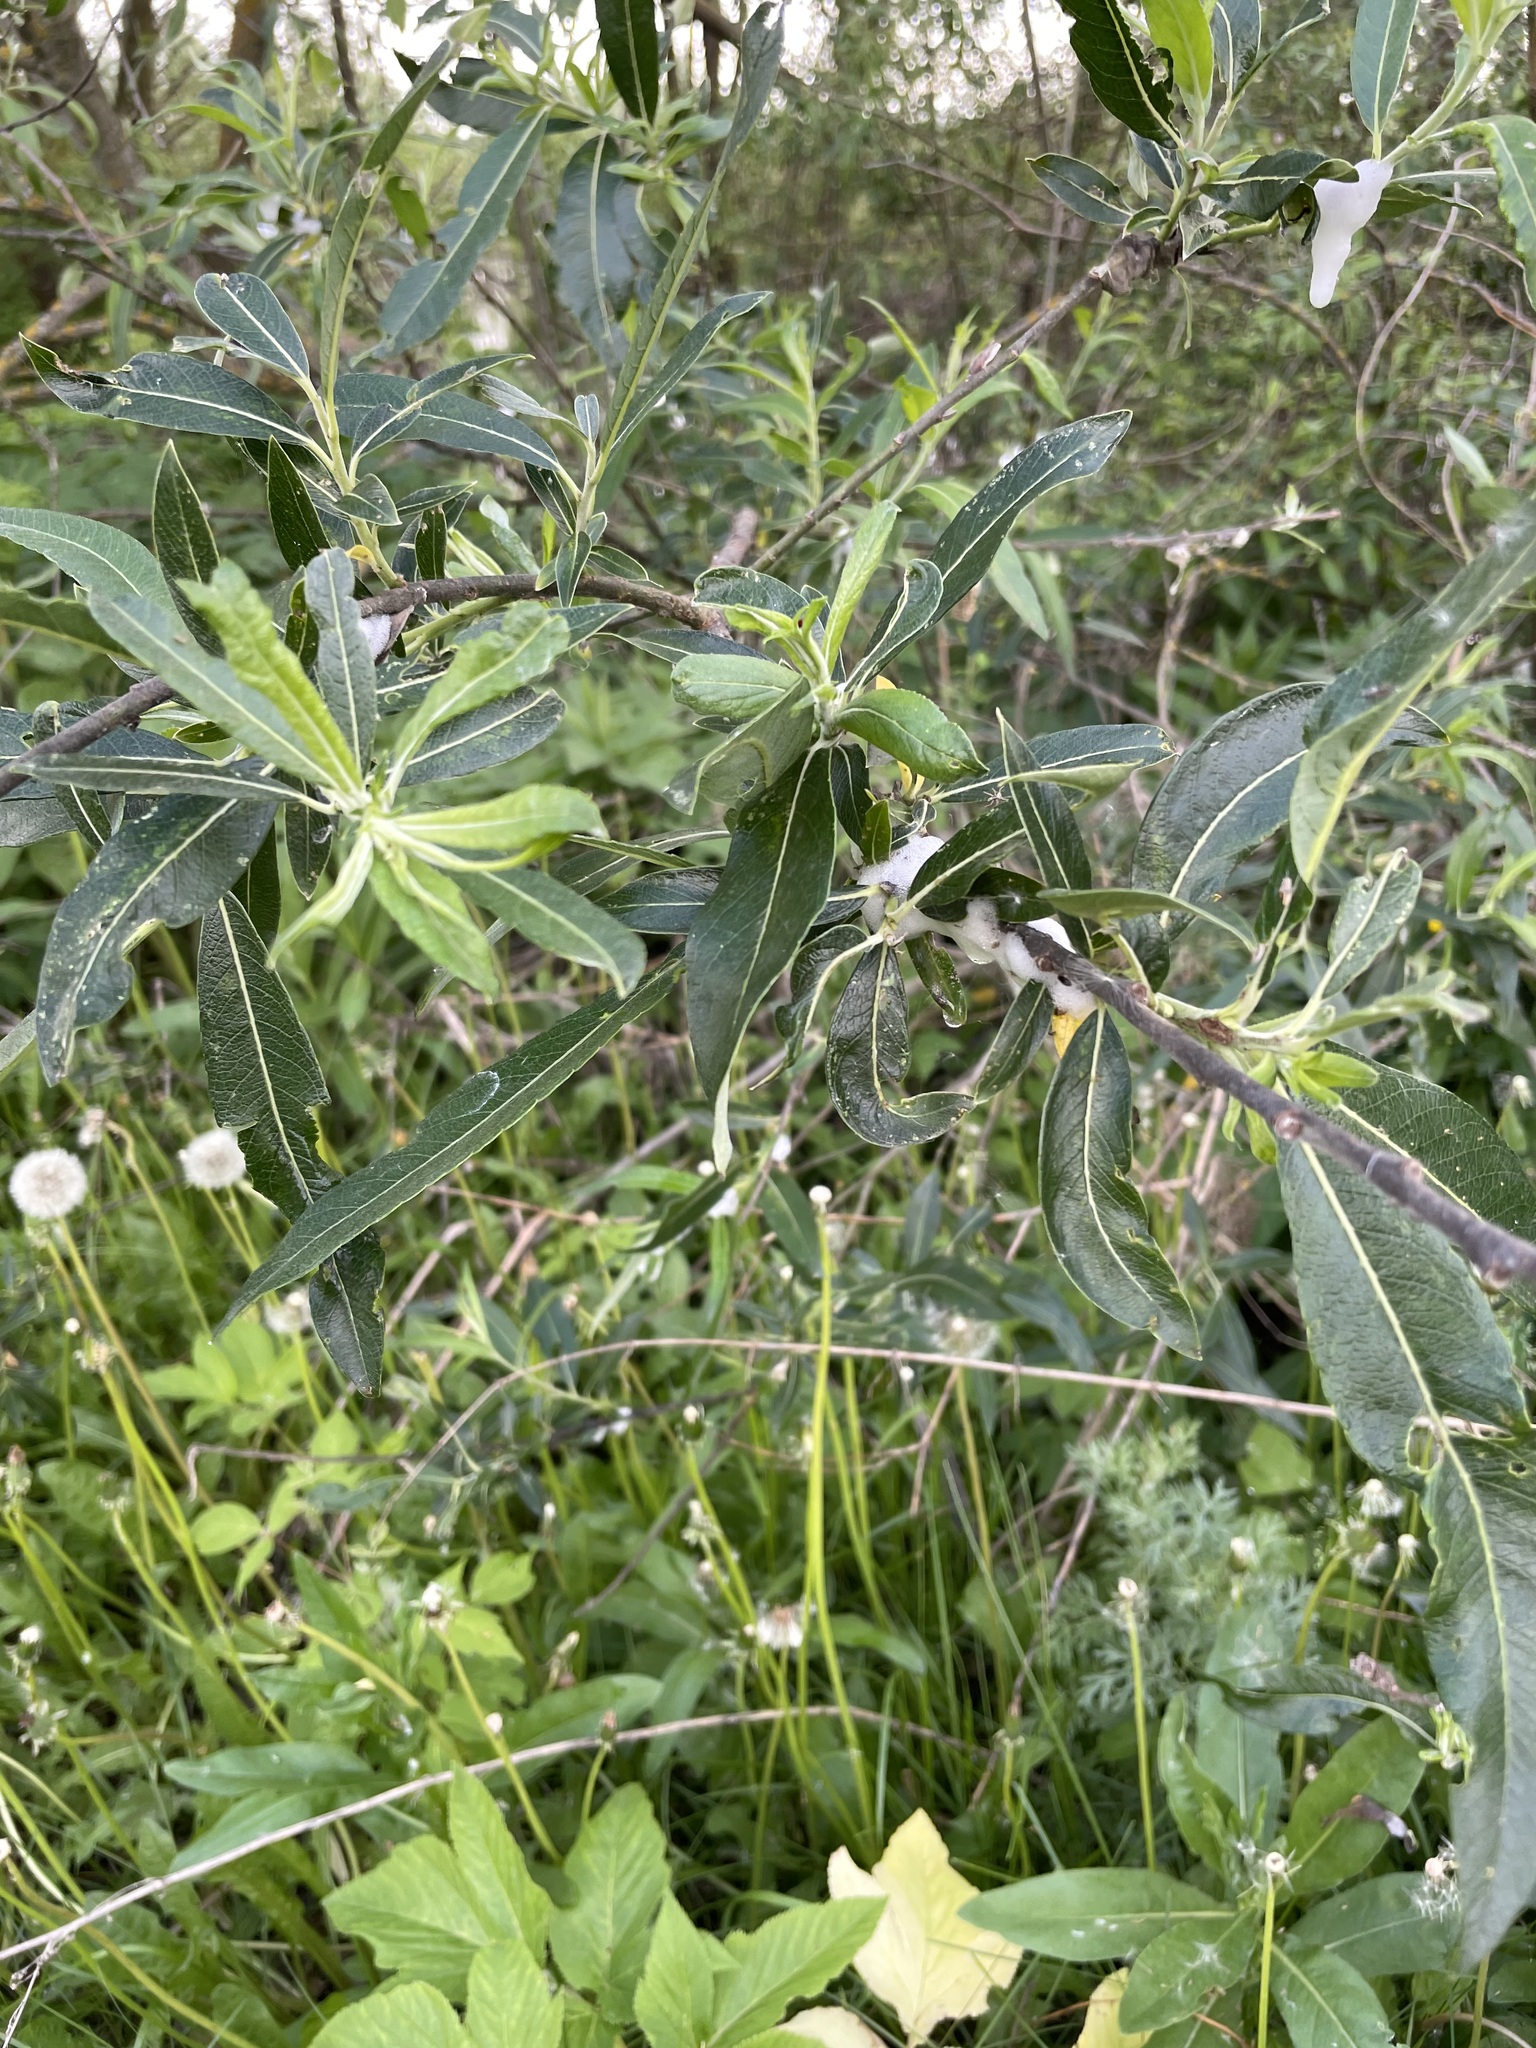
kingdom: Plantae
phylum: Tracheophyta
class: Magnoliopsida
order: Malpighiales
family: Salicaceae
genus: Salix
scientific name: Salix gmelinii
